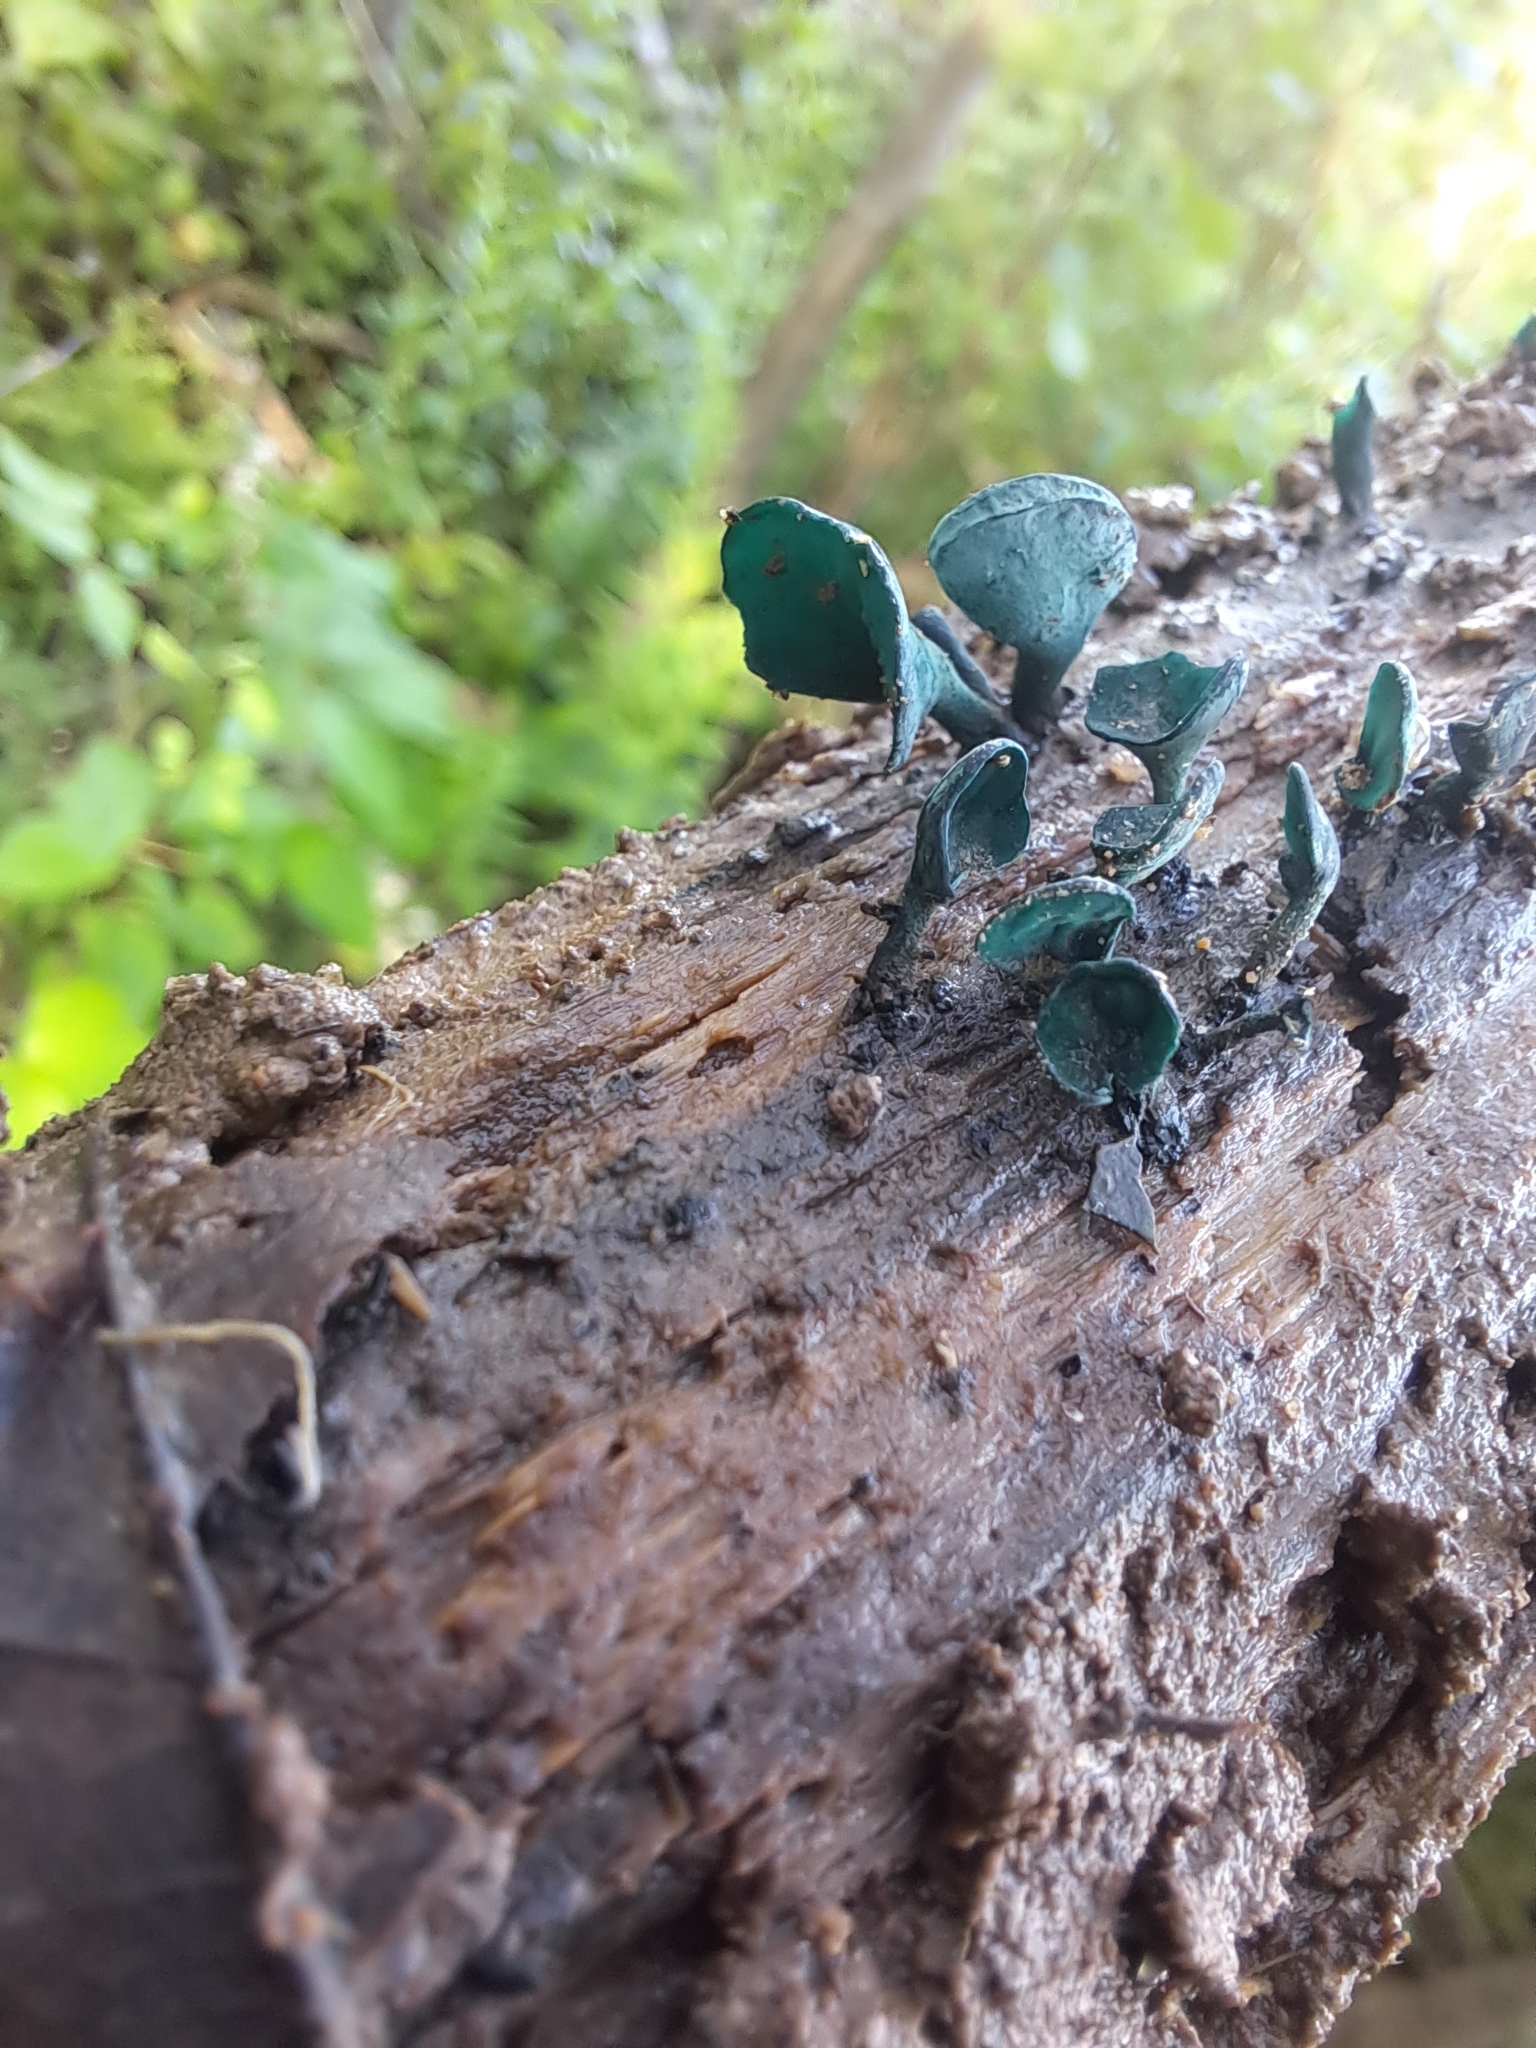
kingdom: Fungi
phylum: Ascomycota
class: Leotiomycetes
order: Helotiales
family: Chlorociboriaceae
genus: Chlorociboria
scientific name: Chlorociboria aeruginascens
